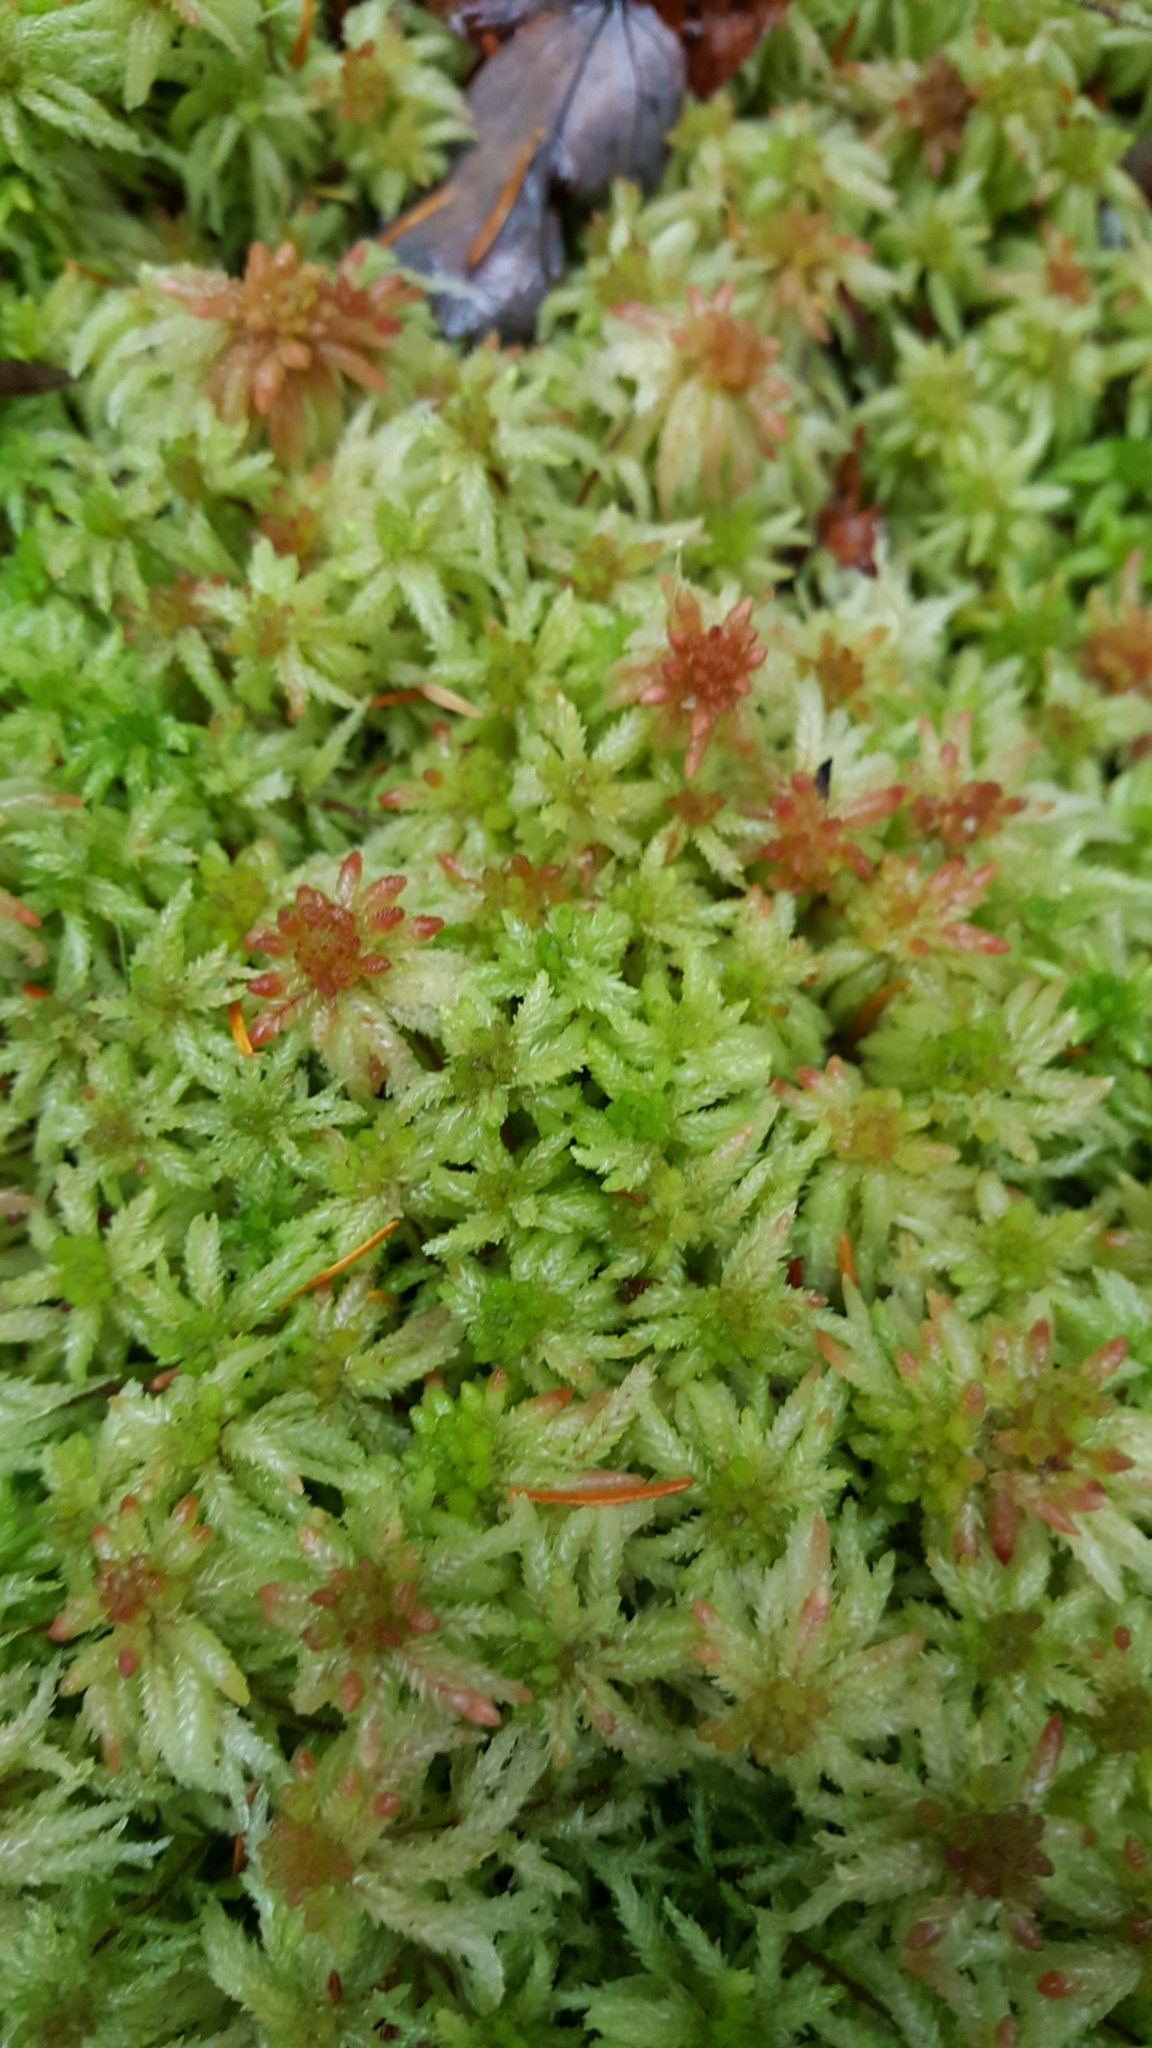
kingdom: Plantae
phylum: Bryophyta
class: Sphagnopsida
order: Sphagnales
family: Sphagnaceae
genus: Sphagnum
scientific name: Sphagnum
